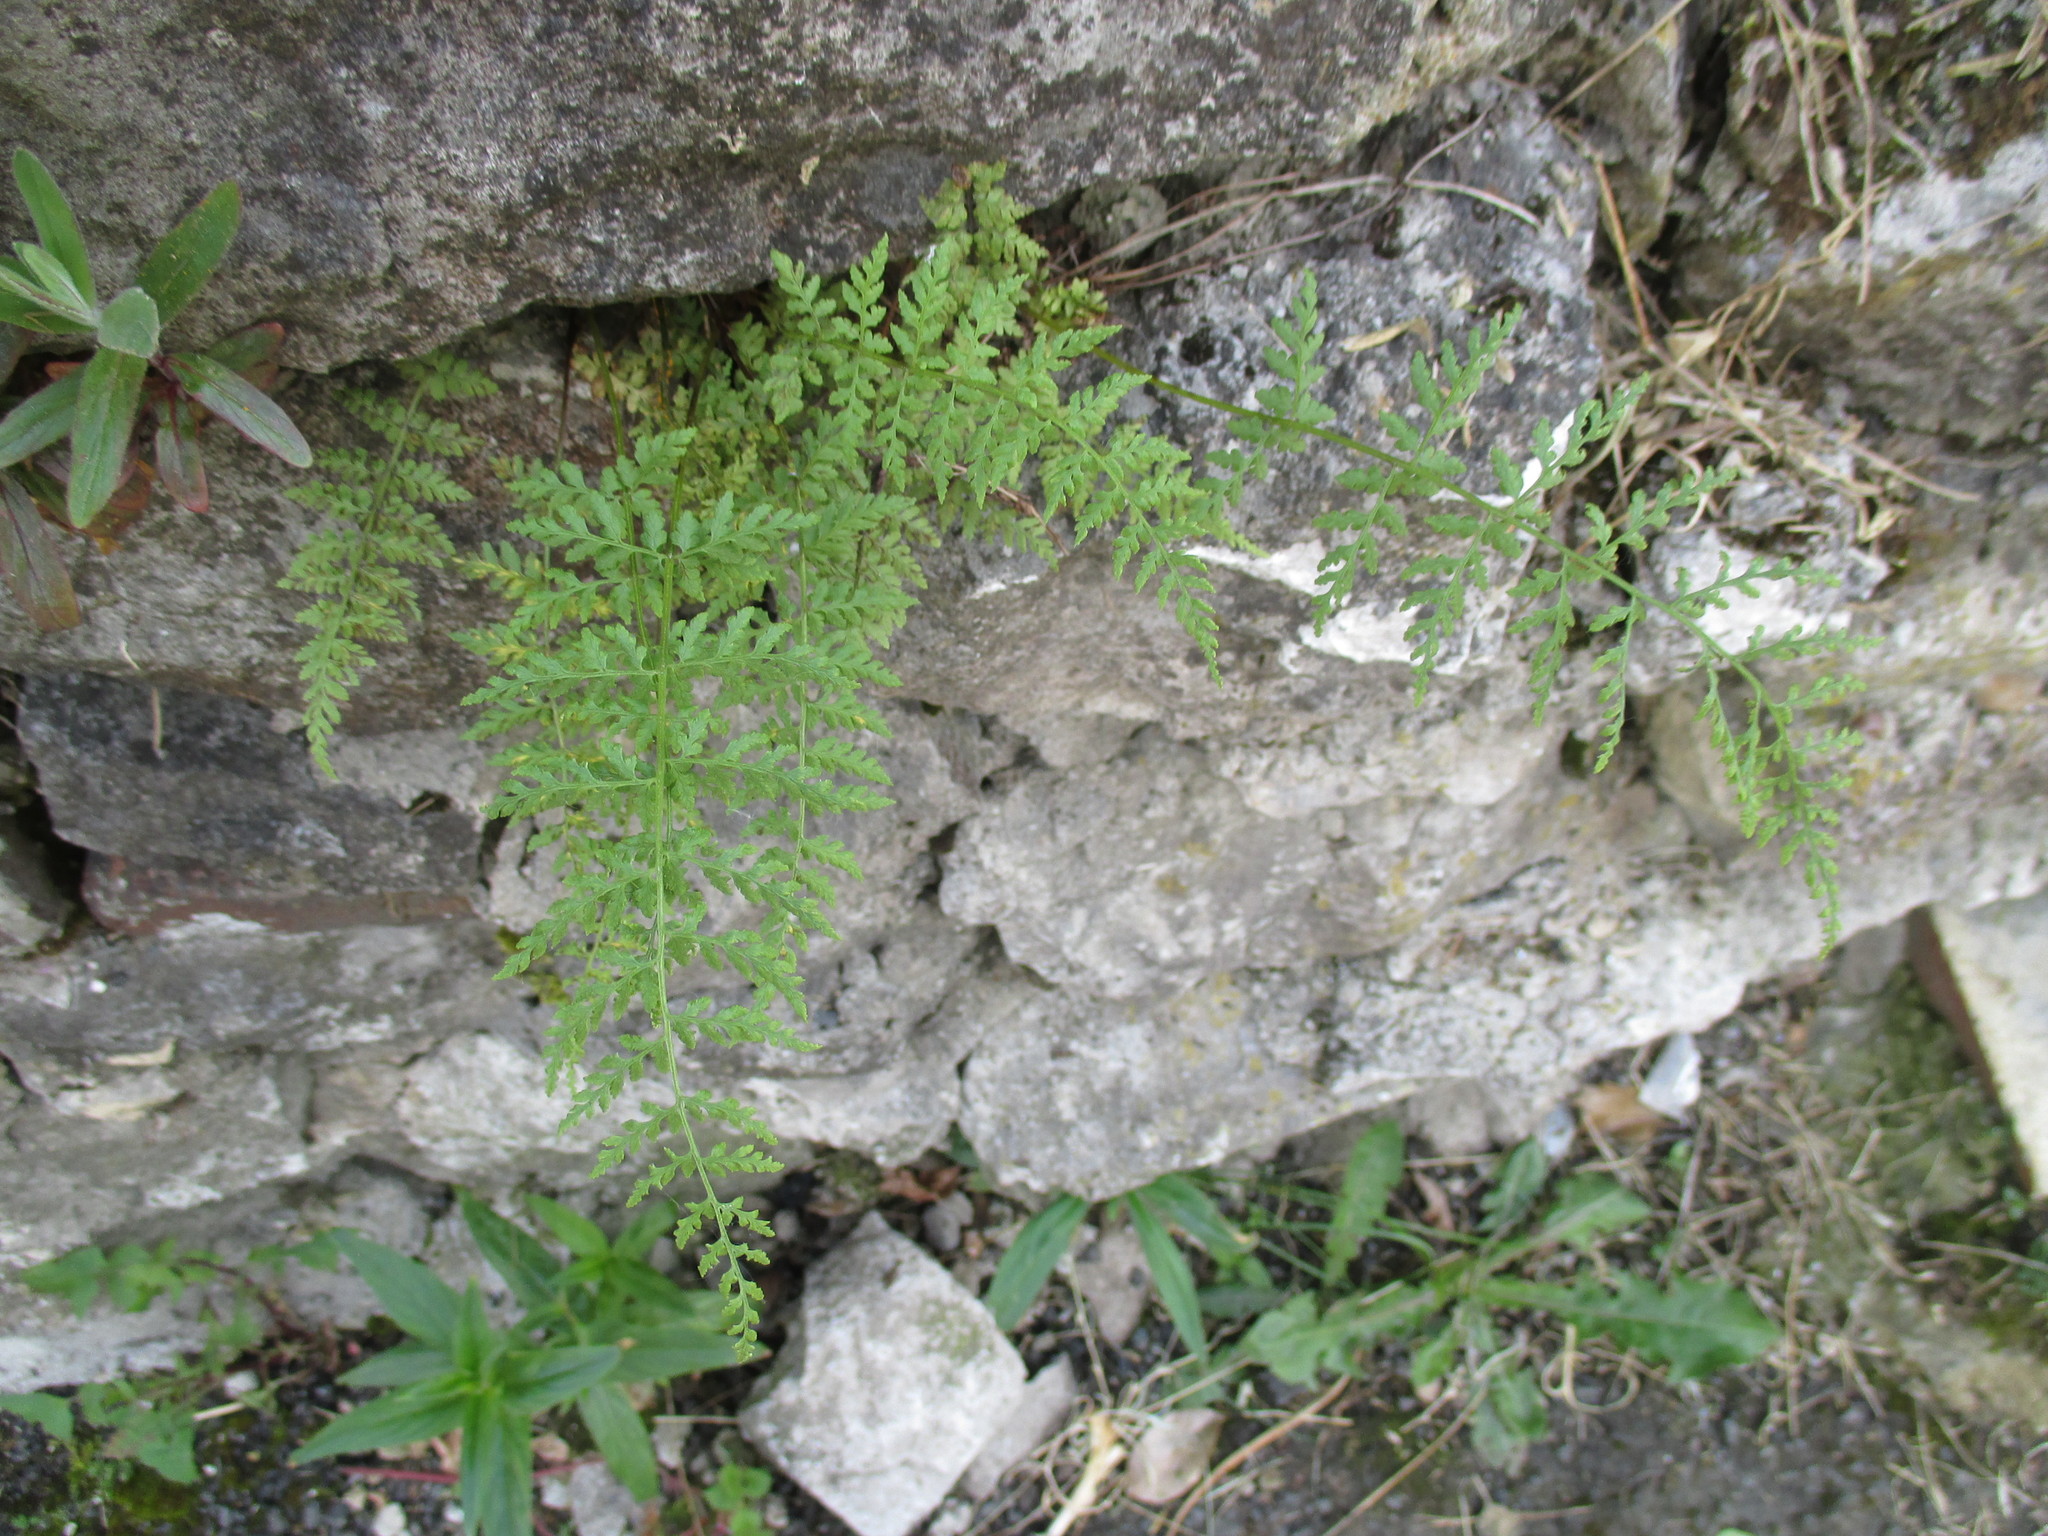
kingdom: Plantae
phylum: Tracheophyta
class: Polypodiopsida
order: Polypodiales
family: Cystopteridaceae
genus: Cystopteris
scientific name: Cystopteris fragilis
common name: Brittle bladder fern
